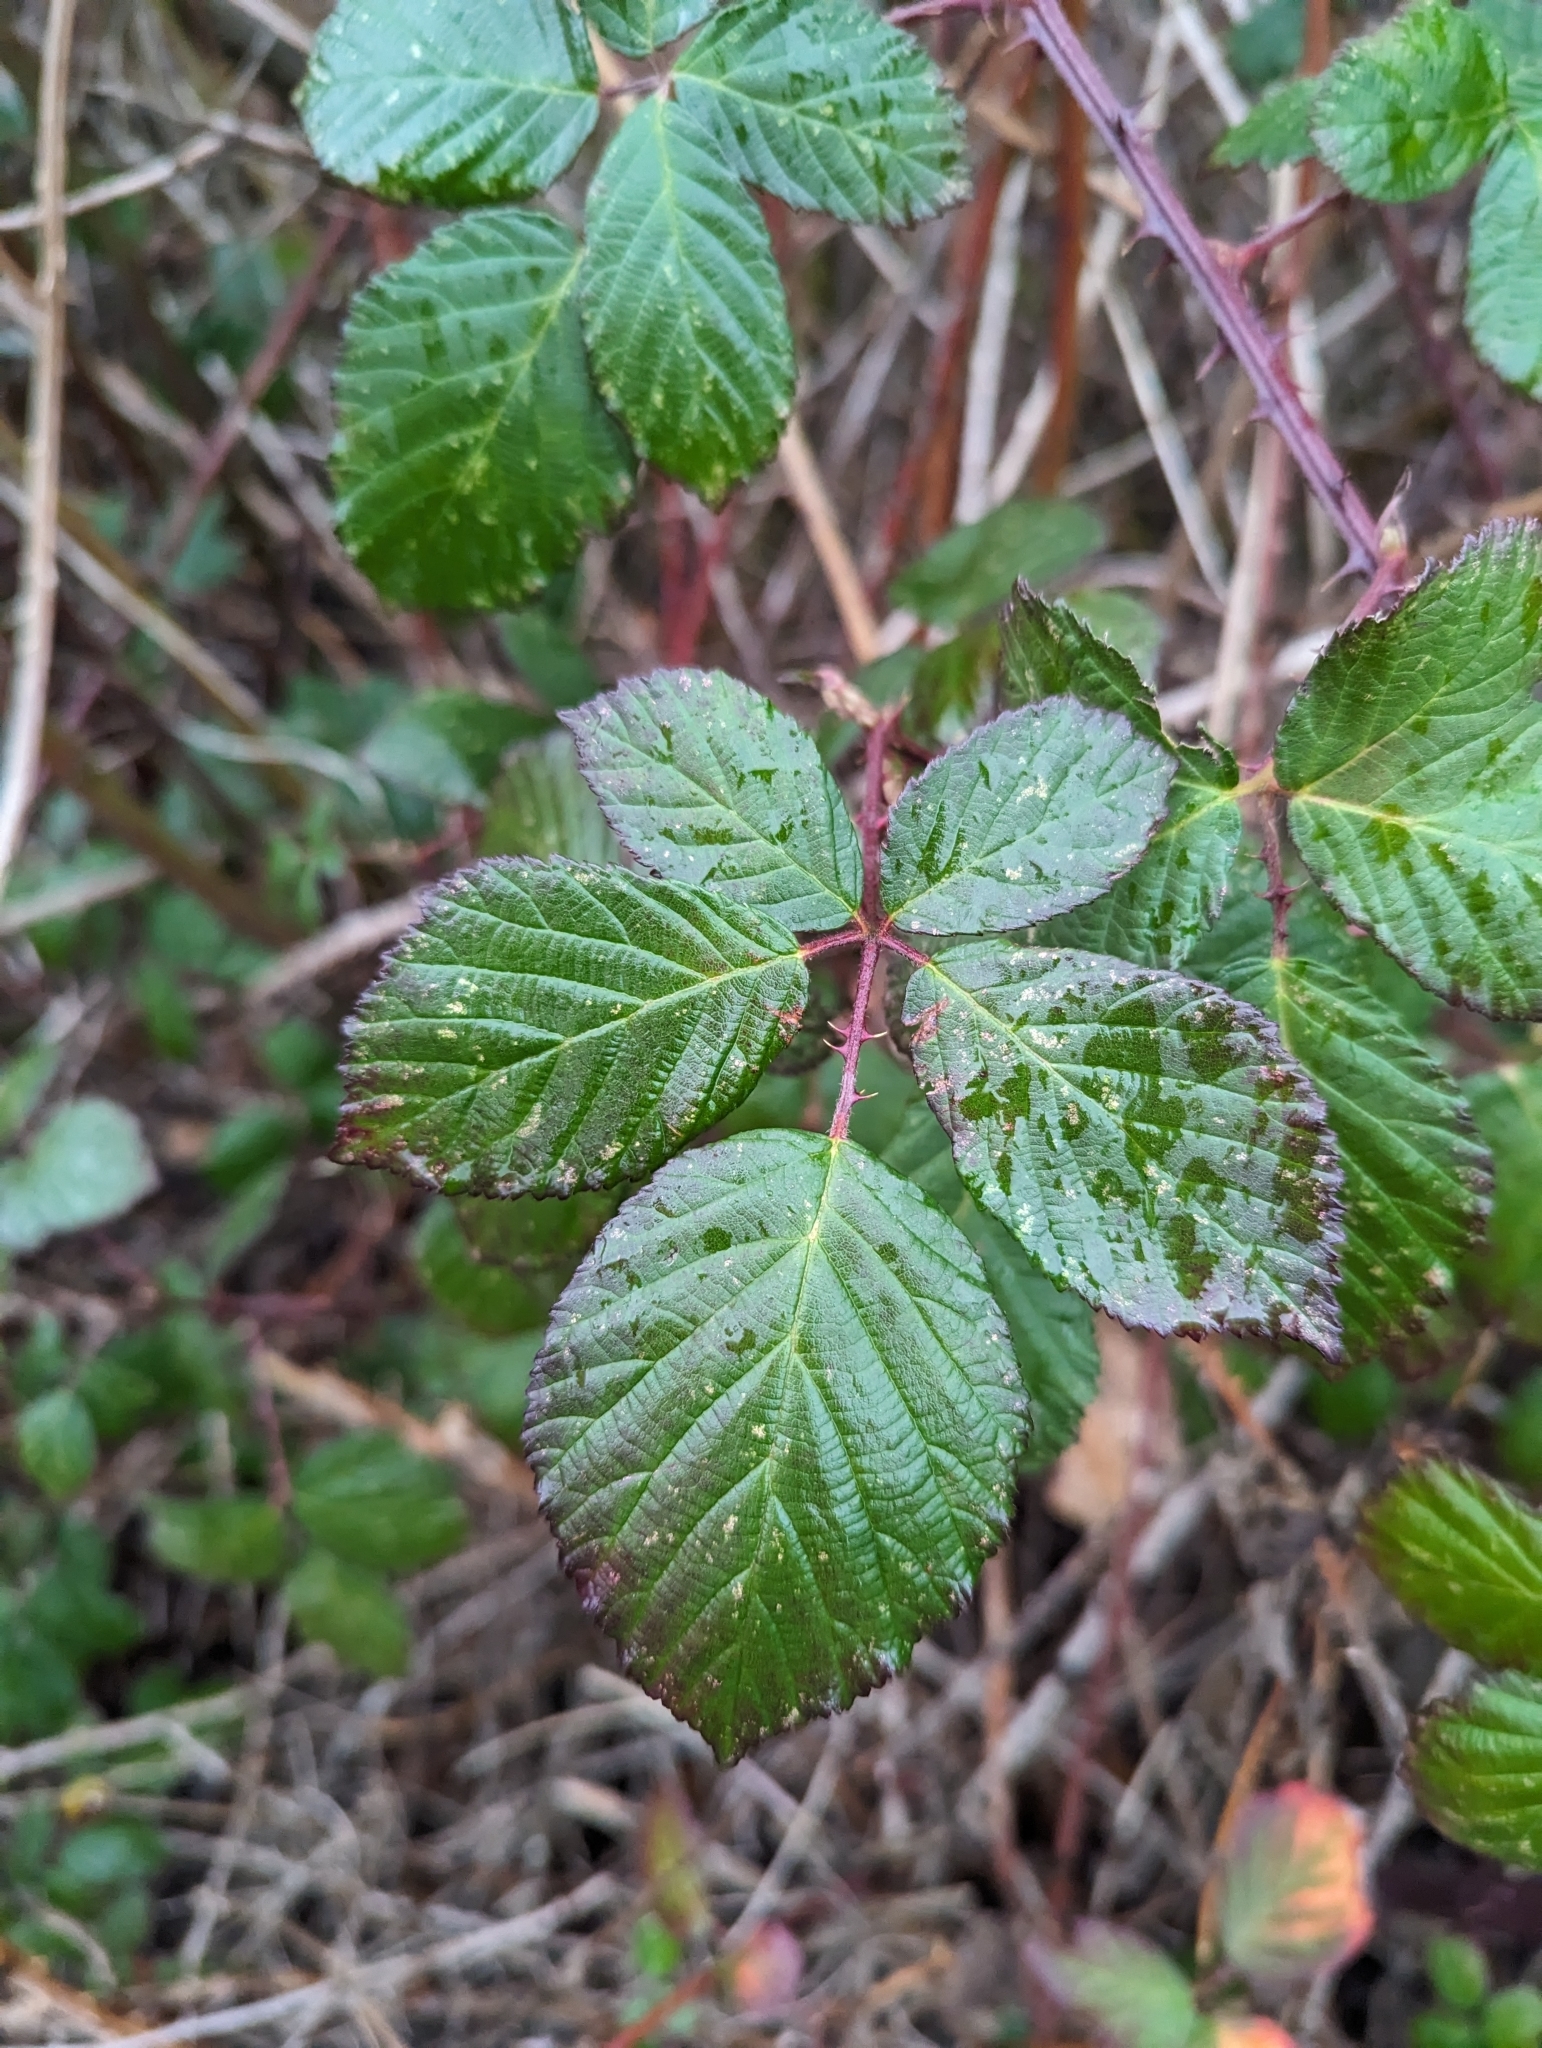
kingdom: Plantae
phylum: Tracheophyta
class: Magnoliopsida
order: Rosales
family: Rosaceae
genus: Rubus
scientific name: Rubus bifrons
